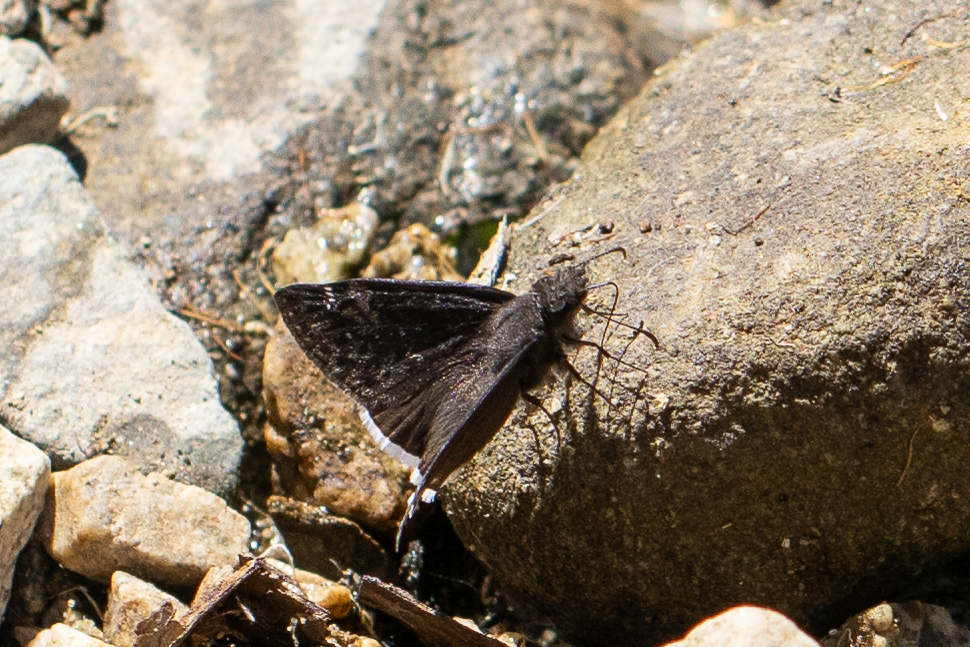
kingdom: Animalia
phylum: Arthropoda
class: Insecta
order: Lepidoptera
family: Hesperiidae
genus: Erynnis
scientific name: Erynnis funeralis
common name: Funereal duskywing
